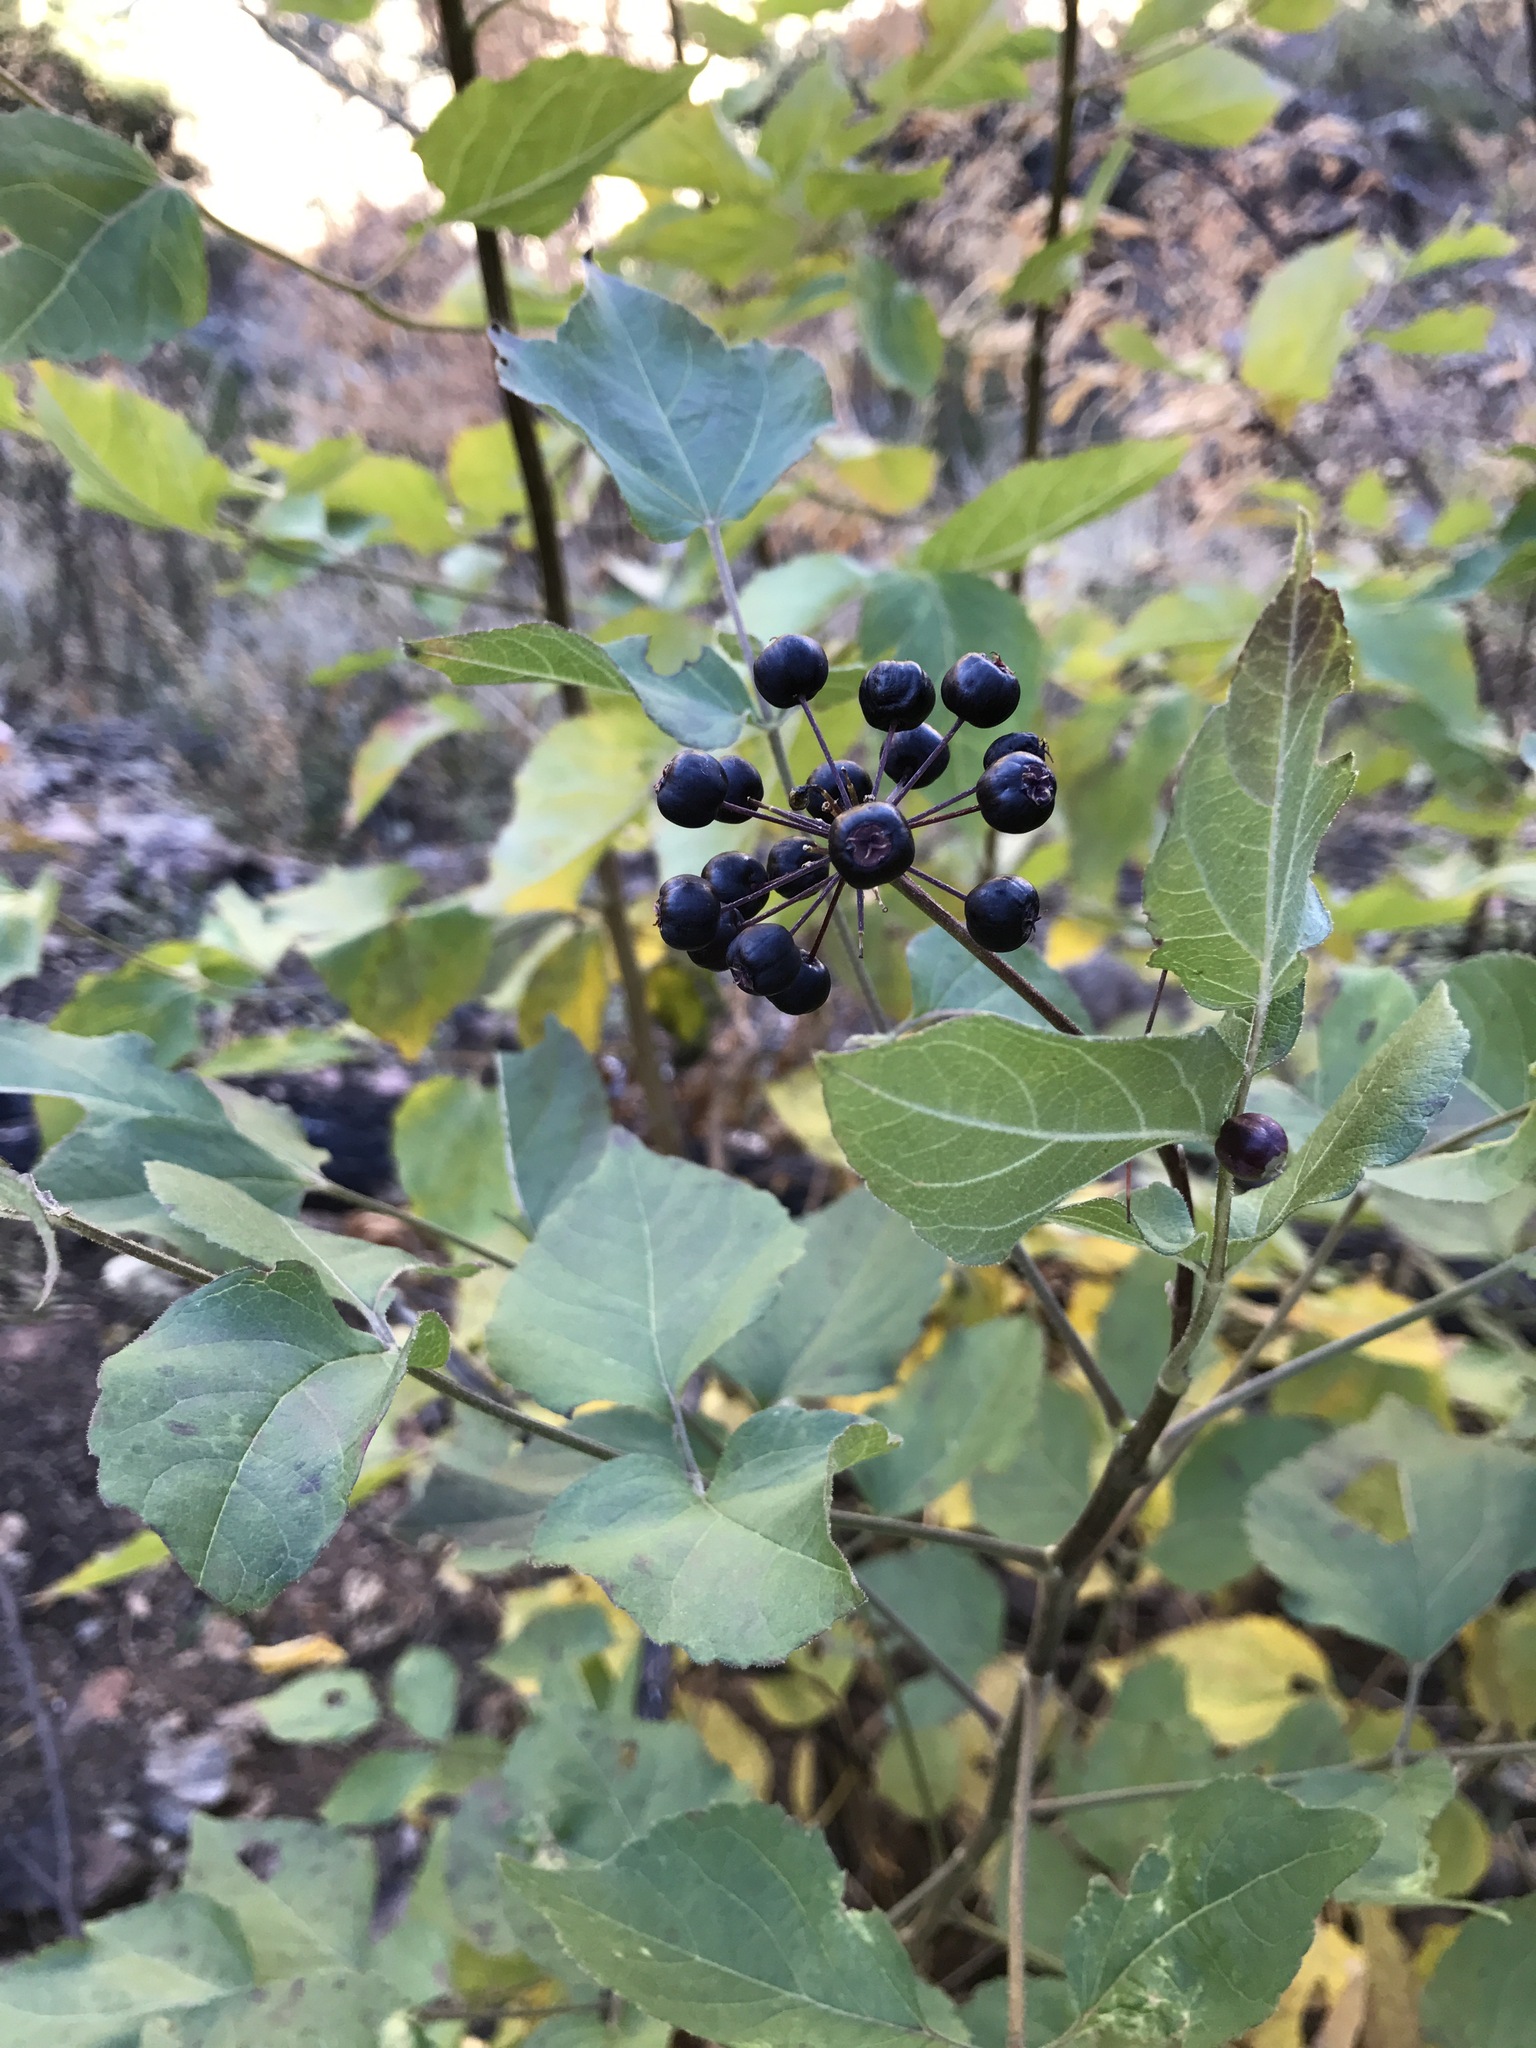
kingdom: Plantae
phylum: Tracheophyta
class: Magnoliopsida
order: Apiales
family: Araliaceae
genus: Aralia
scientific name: Aralia humilis
